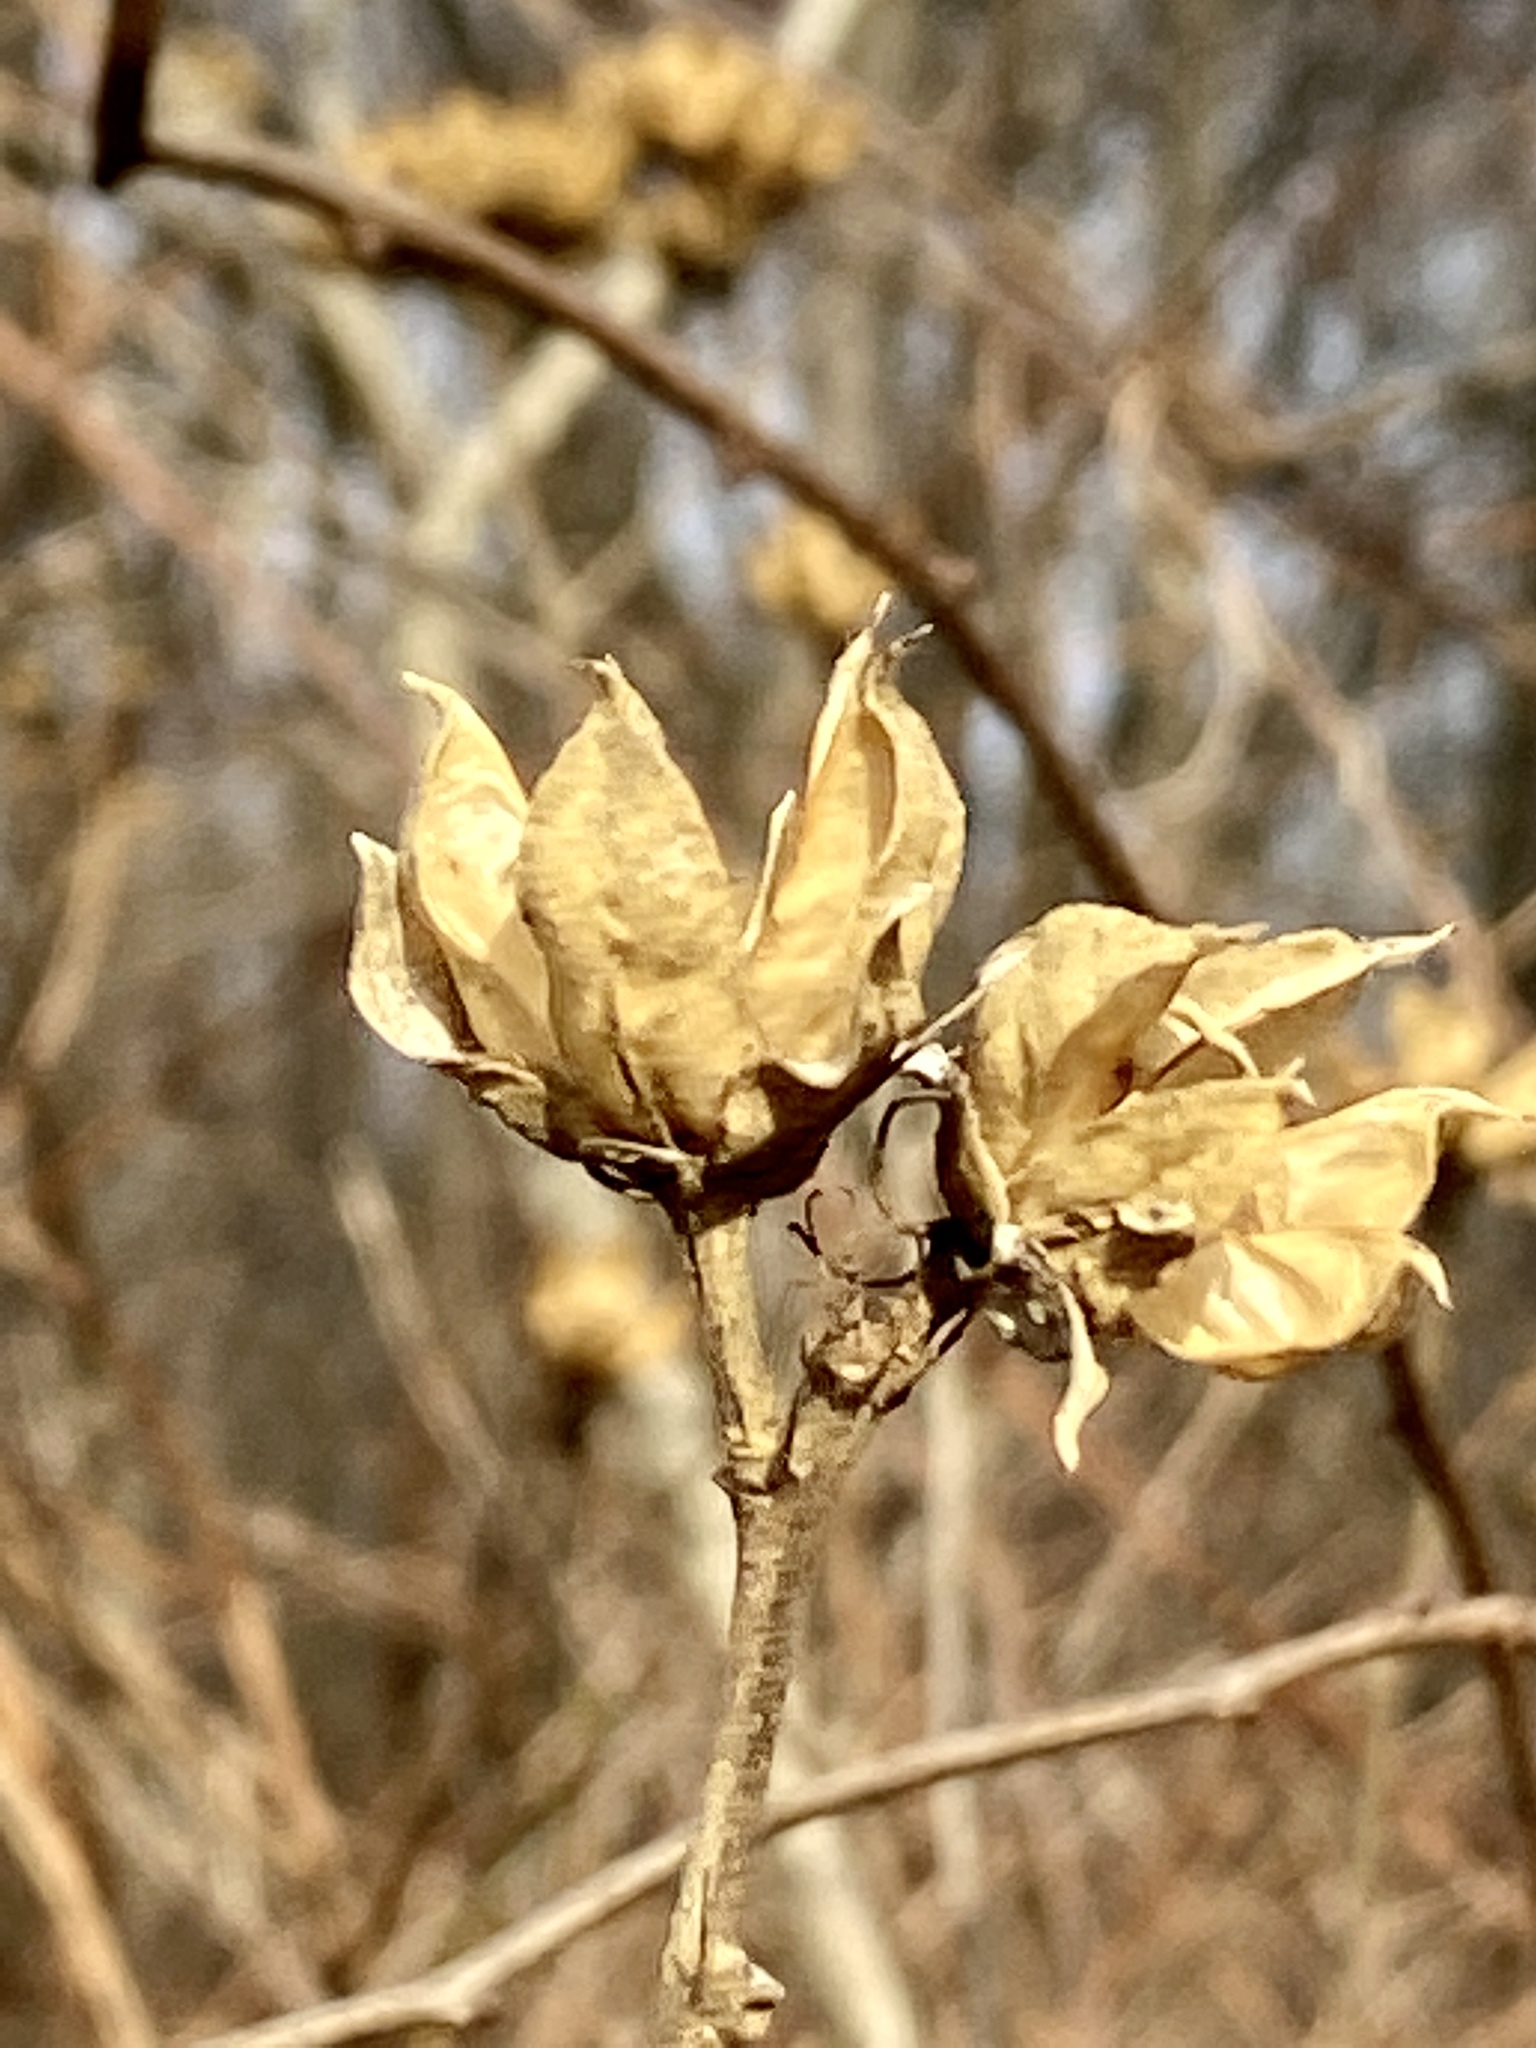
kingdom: Plantae
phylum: Tracheophyta
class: Magnoliopsida
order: Malvales
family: Malvaceae
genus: Hibiscus
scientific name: Hibiscus syriacus
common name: Syrian ketmia
